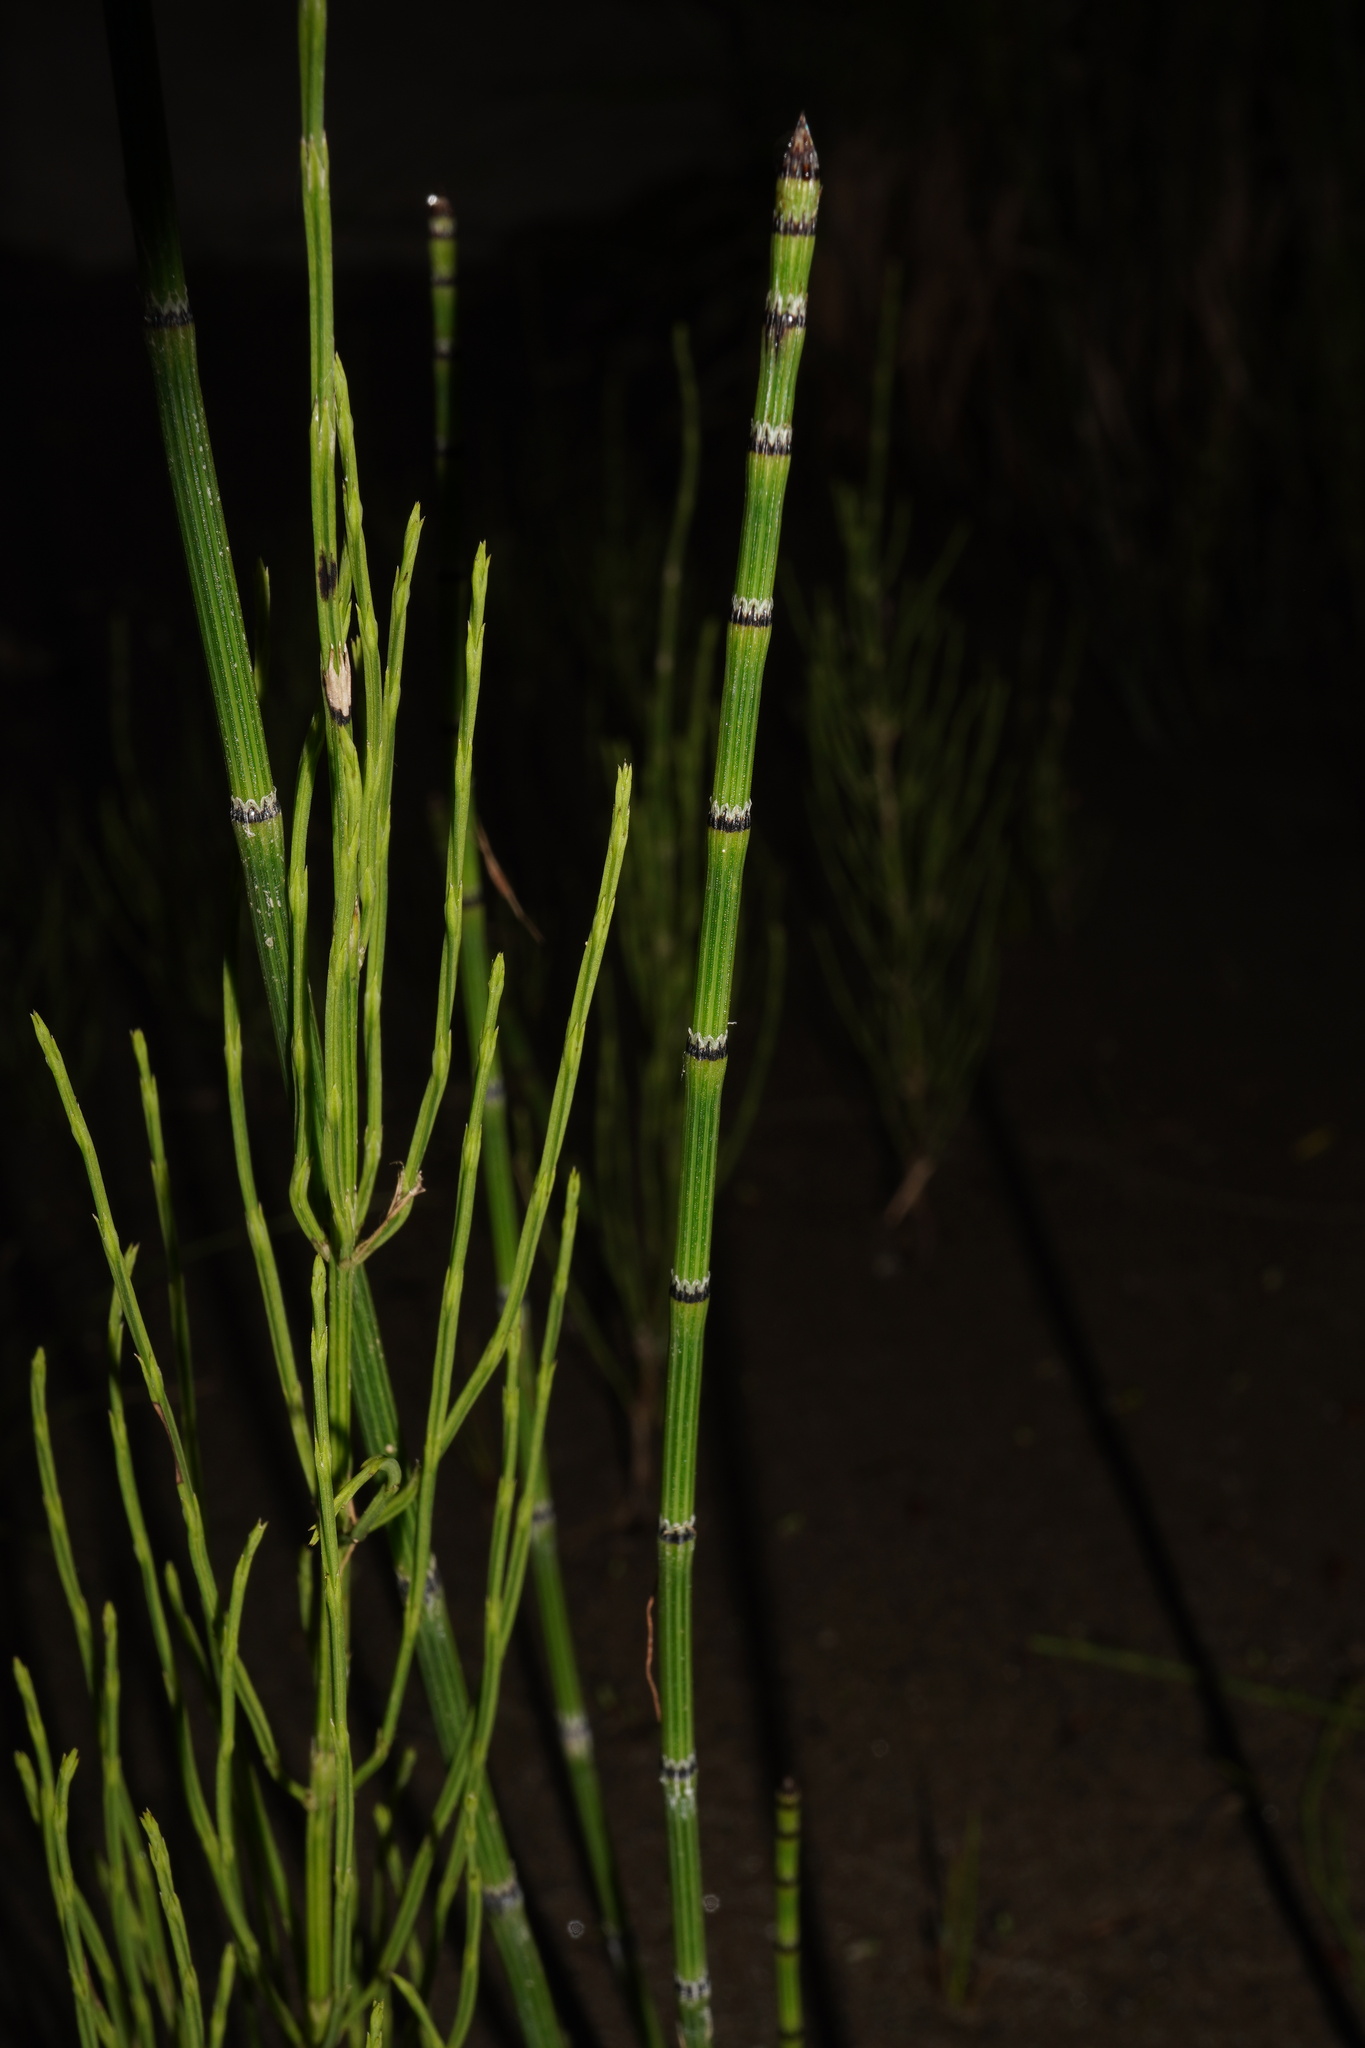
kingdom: Plantae
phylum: Tracheophyta
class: Polypodiopsida
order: Equisetales
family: Equisetaceae
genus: Equisetum
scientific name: Equisetum arvense
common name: Field horsetail
